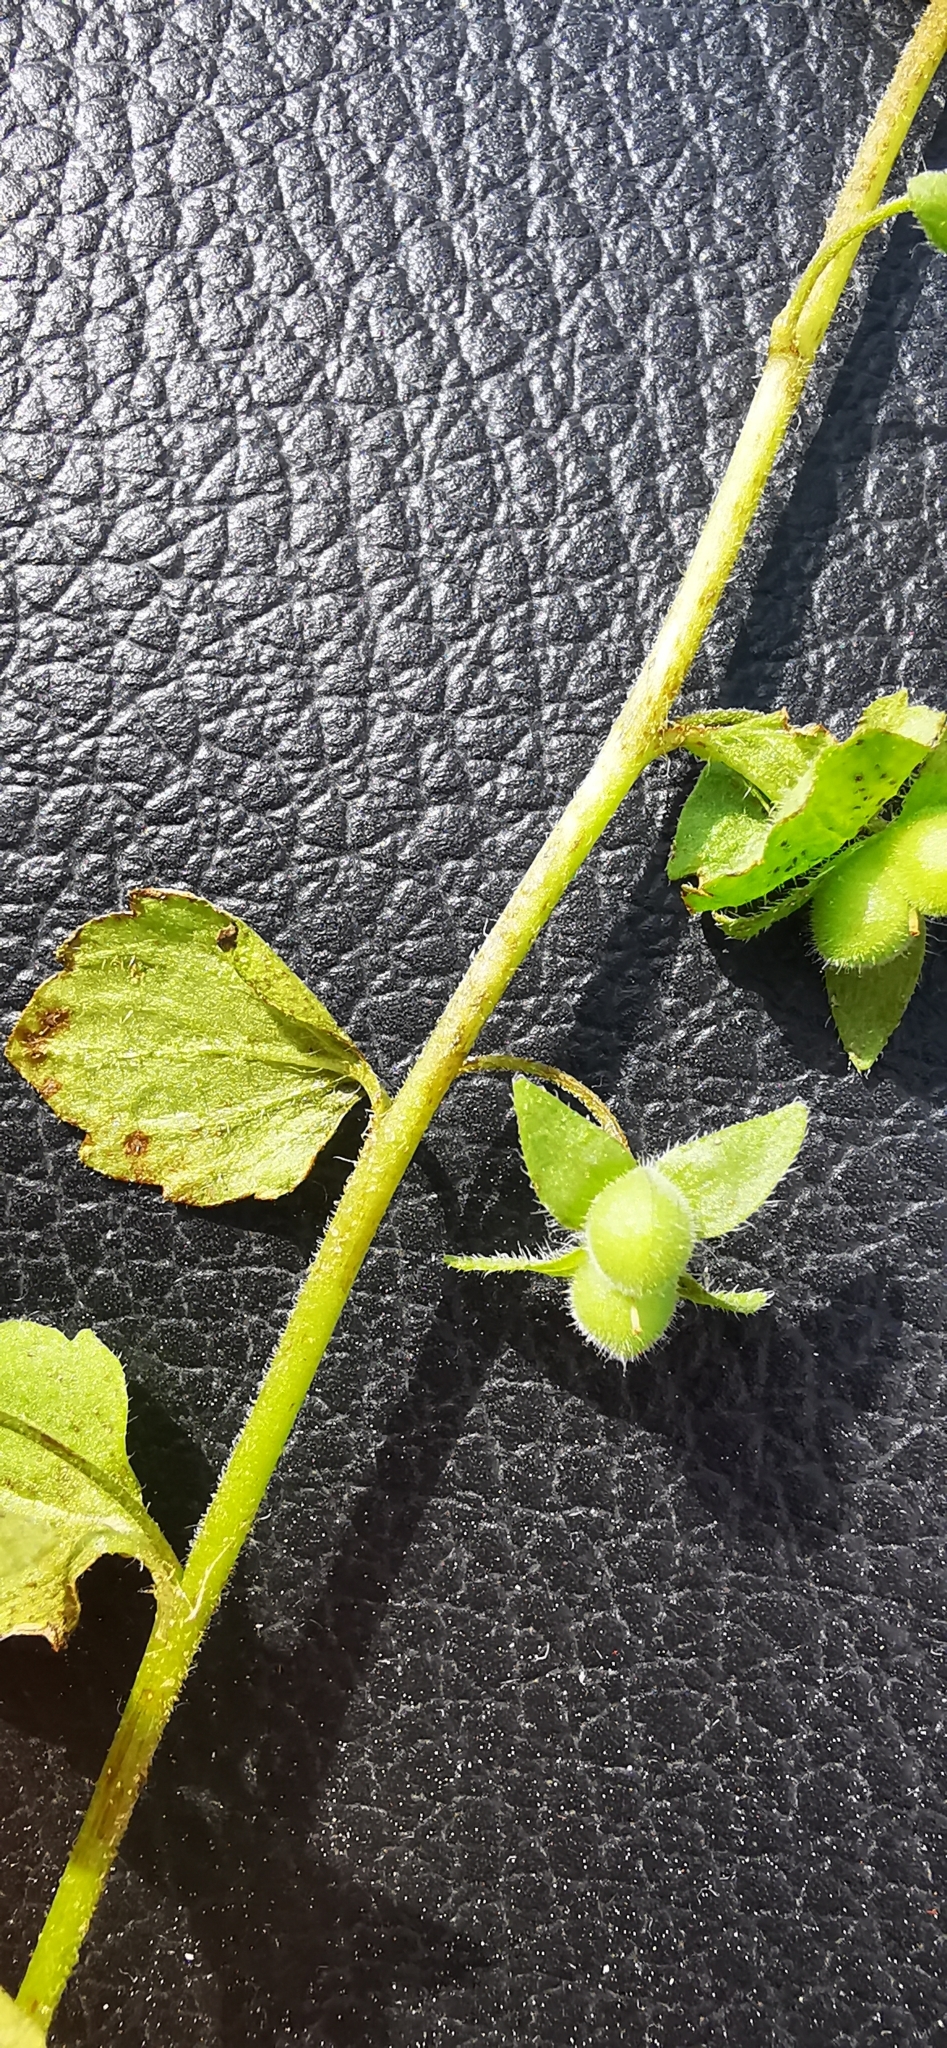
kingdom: Plantae
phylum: Tracheophyta
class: Magnoliopsida
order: Lamiales
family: Plantaginaceae
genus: Veronica
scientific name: Veronica opaca
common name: Dark speedwell
